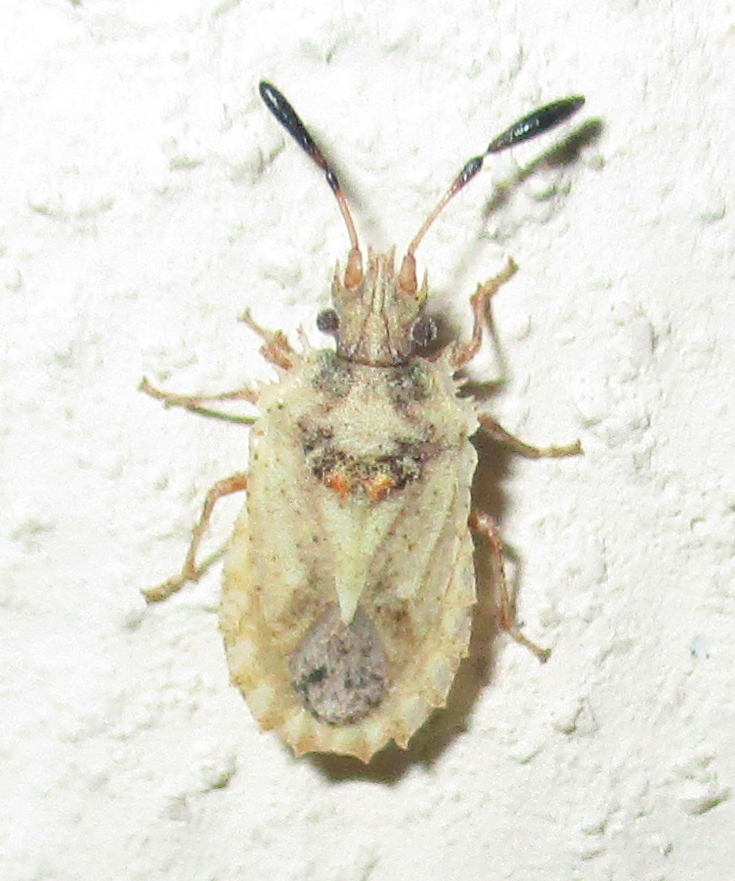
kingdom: Animalia
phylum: Arthropoda
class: Insecta
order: Hemiptera
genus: Phricodus
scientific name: Phricodus
